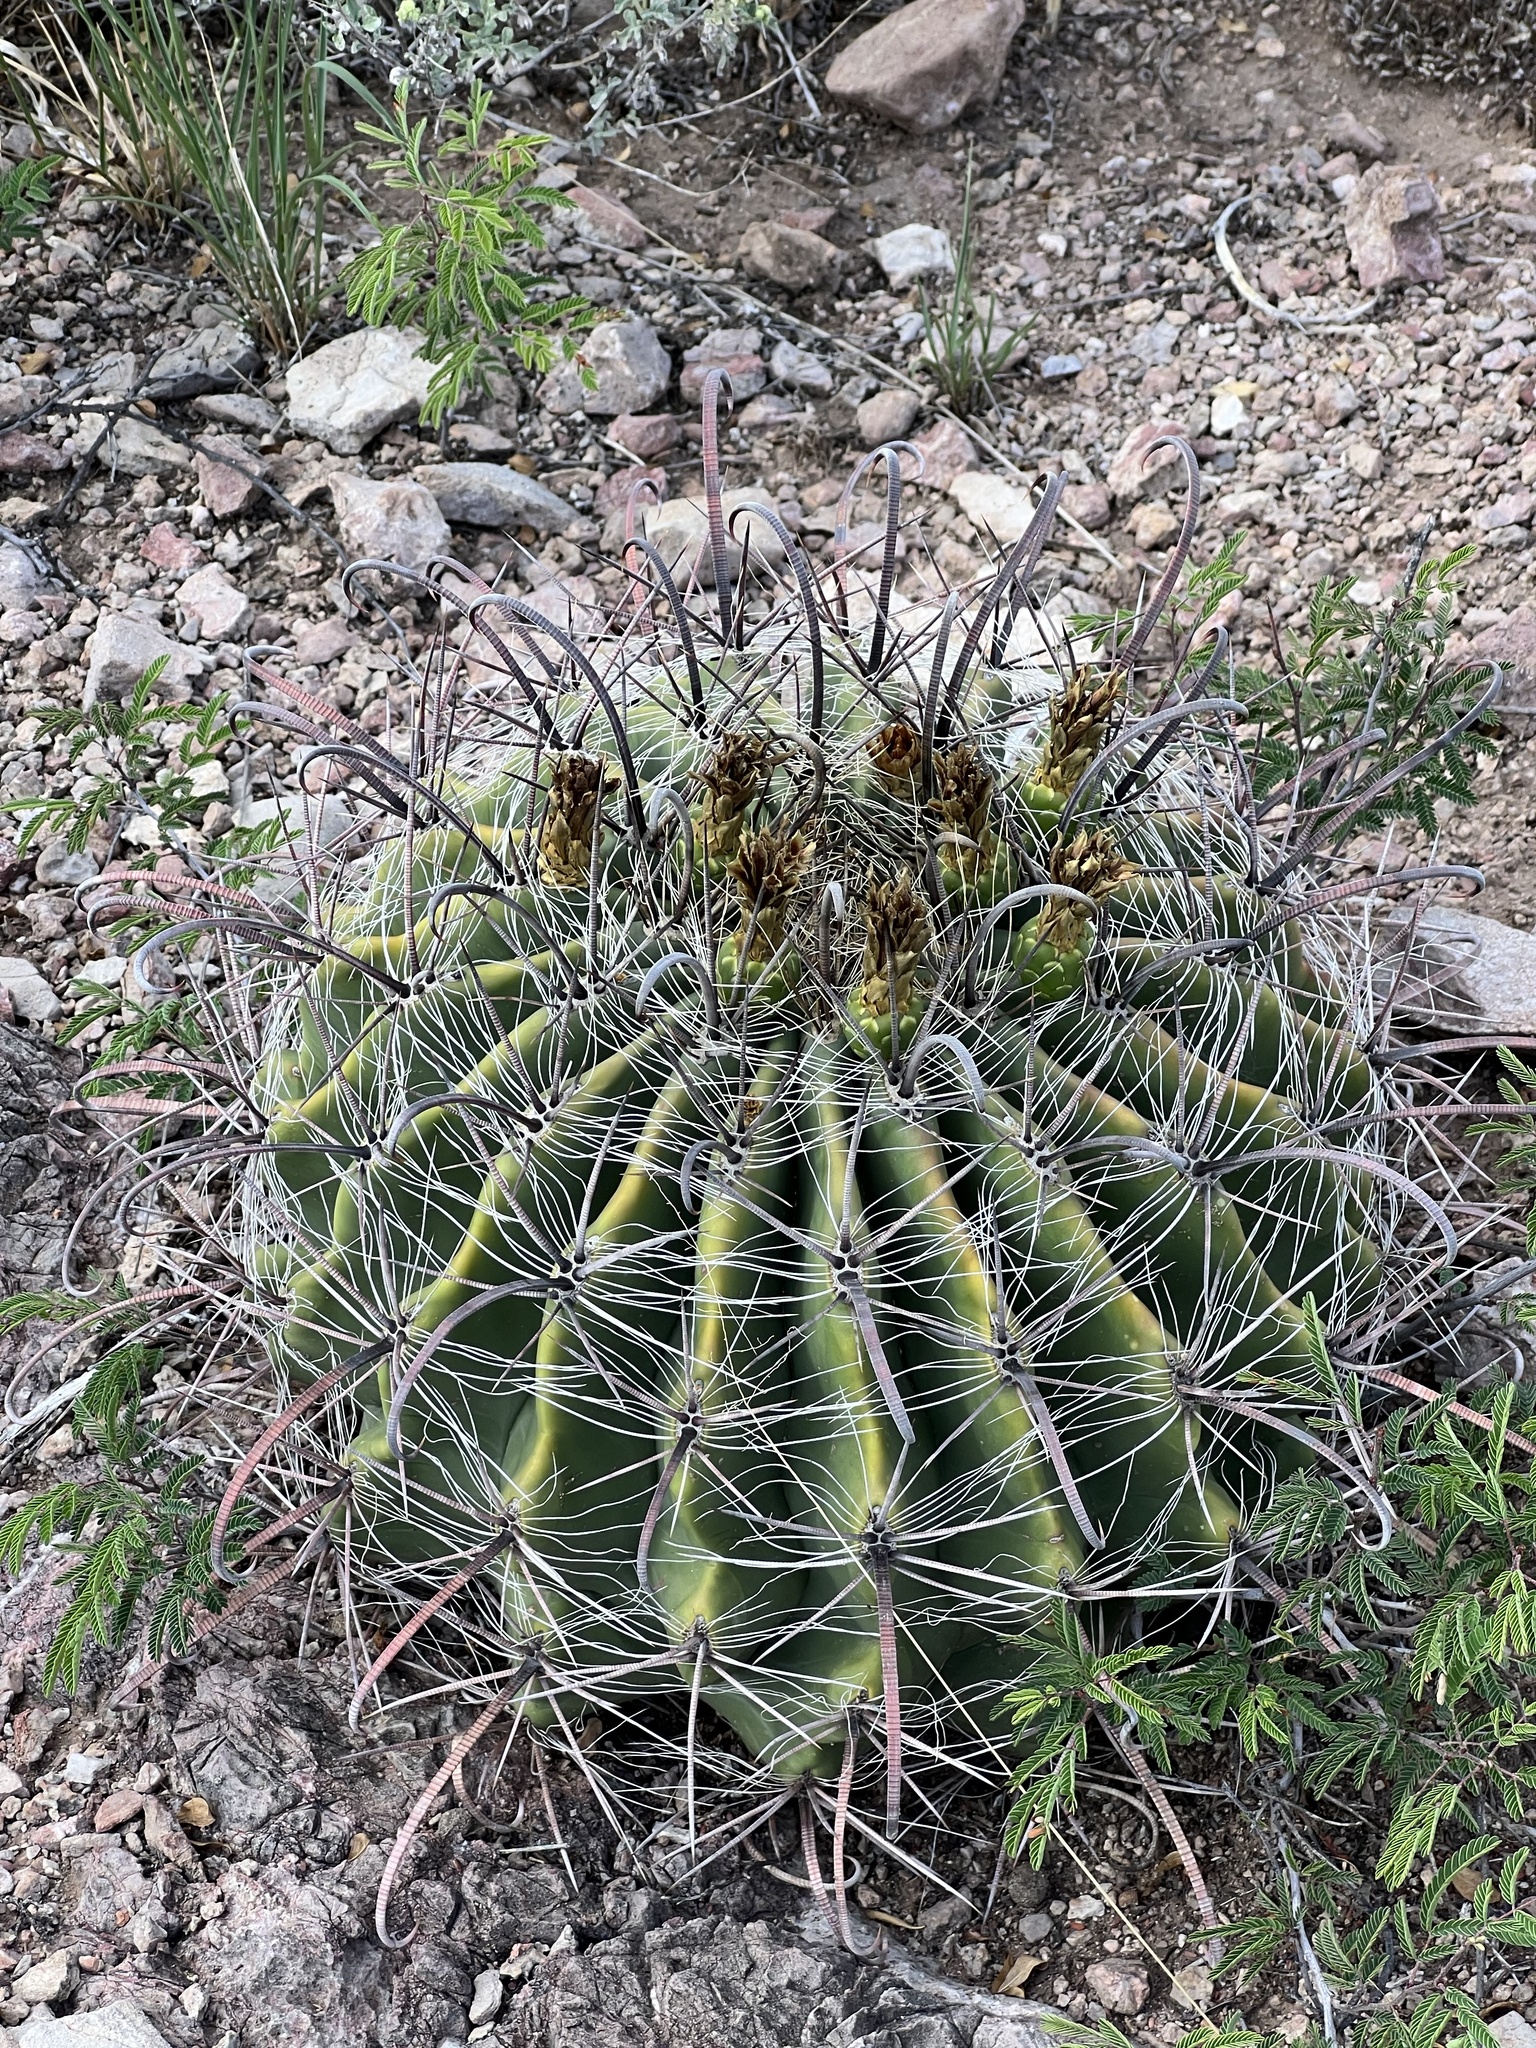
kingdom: Plantae
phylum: Tracheophyta
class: Magnoliopsida
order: Caryophyllales
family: Cactaceae
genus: Ferocactus
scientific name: Ferocactus wislizeni
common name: Candy barrel cactus
